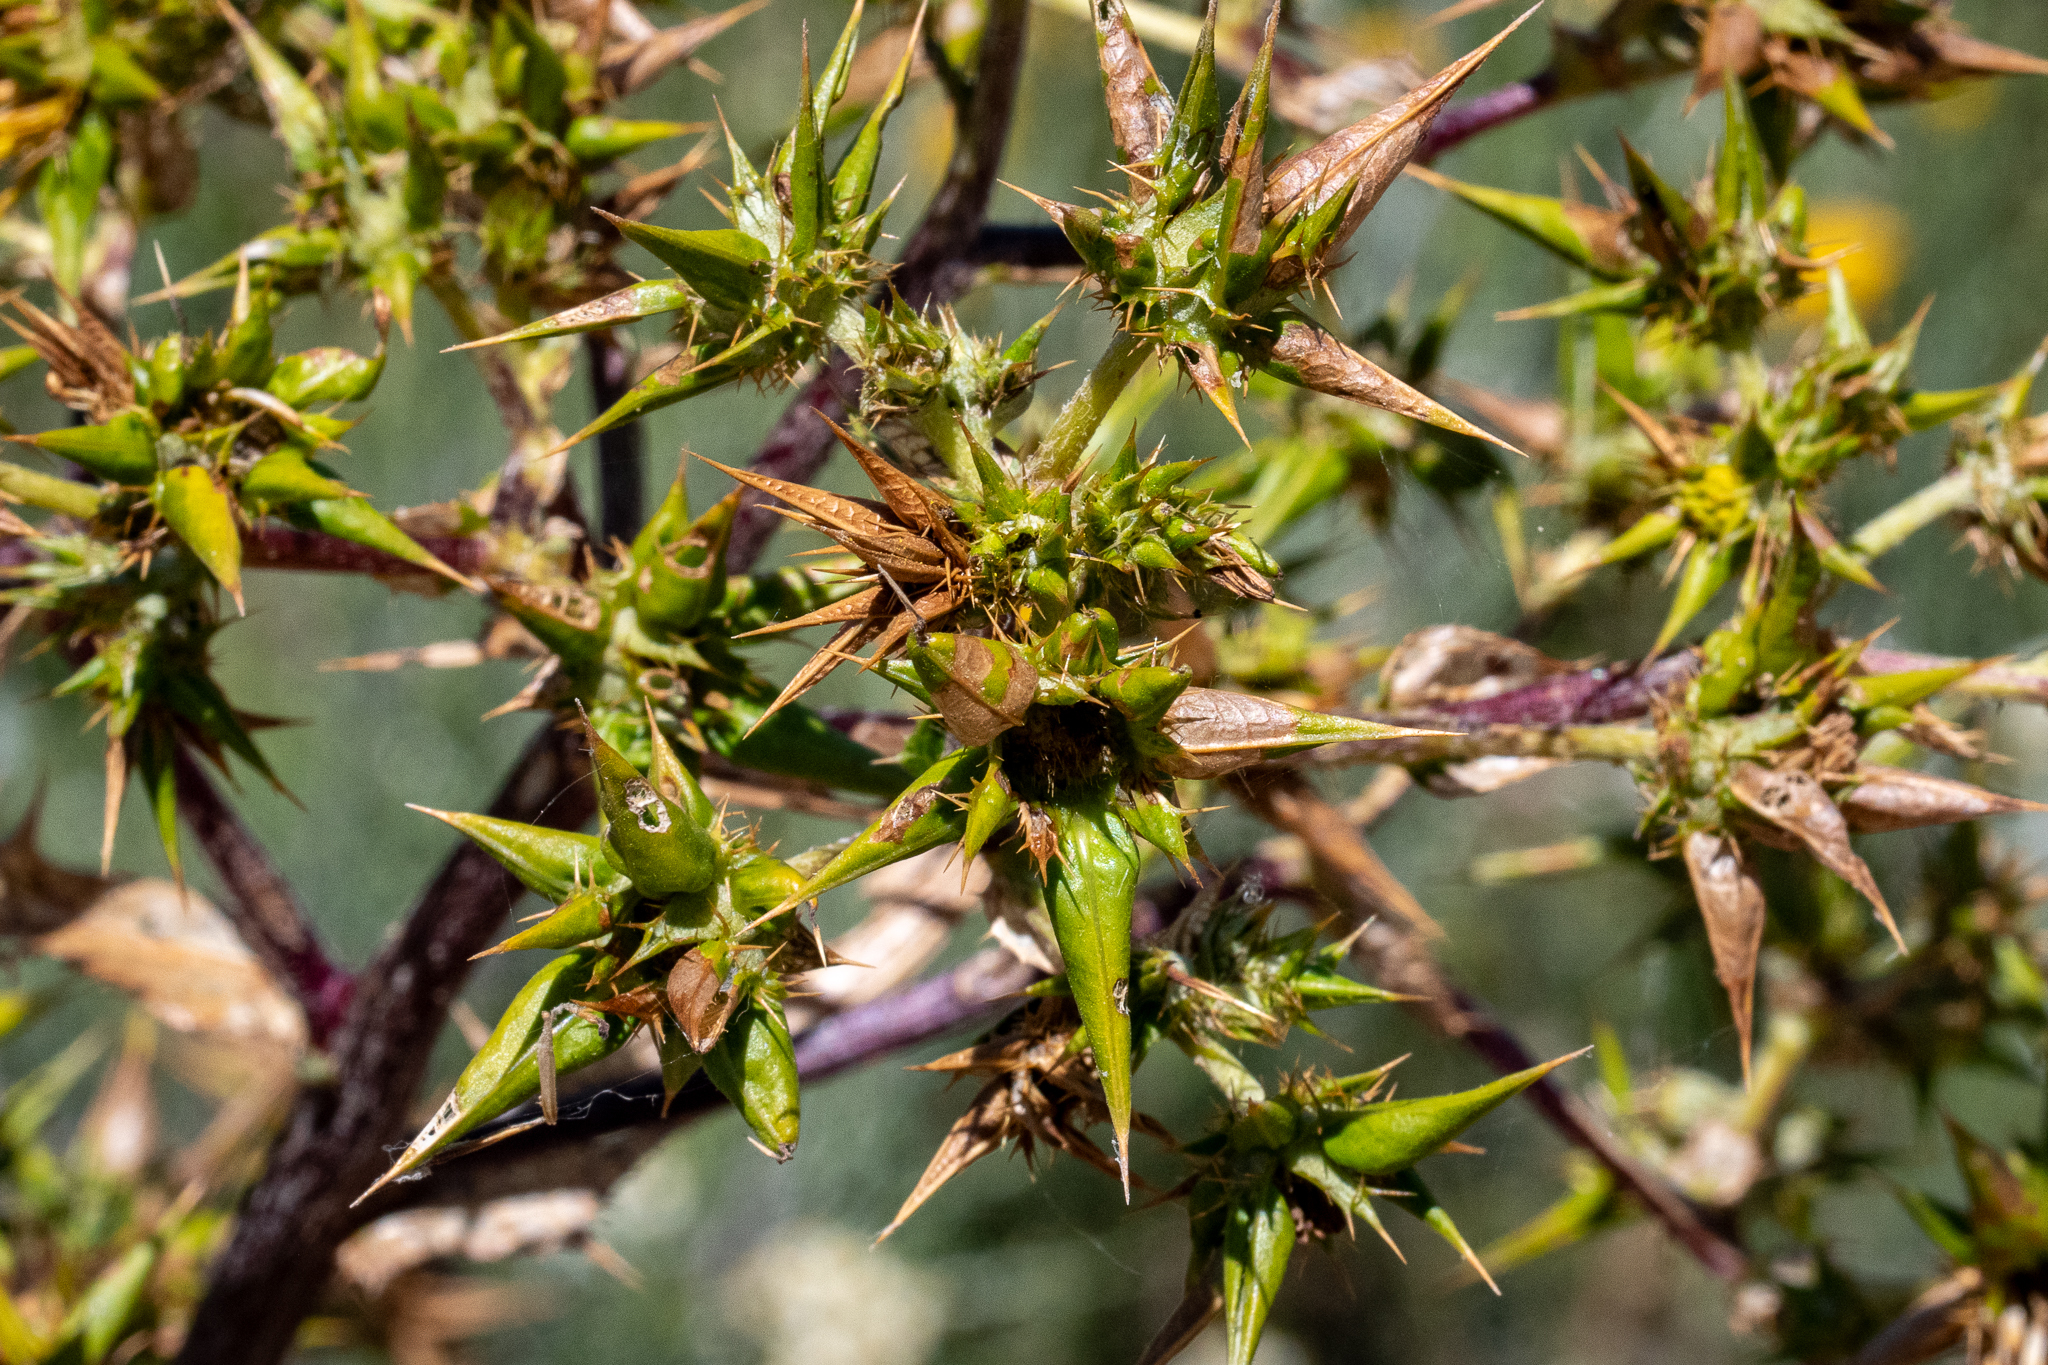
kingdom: Plantae
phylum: Tracheophyta
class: Magnoliopsida
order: Asterales
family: Asteraceae
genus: Berkheya
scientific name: Berkheya rigida
